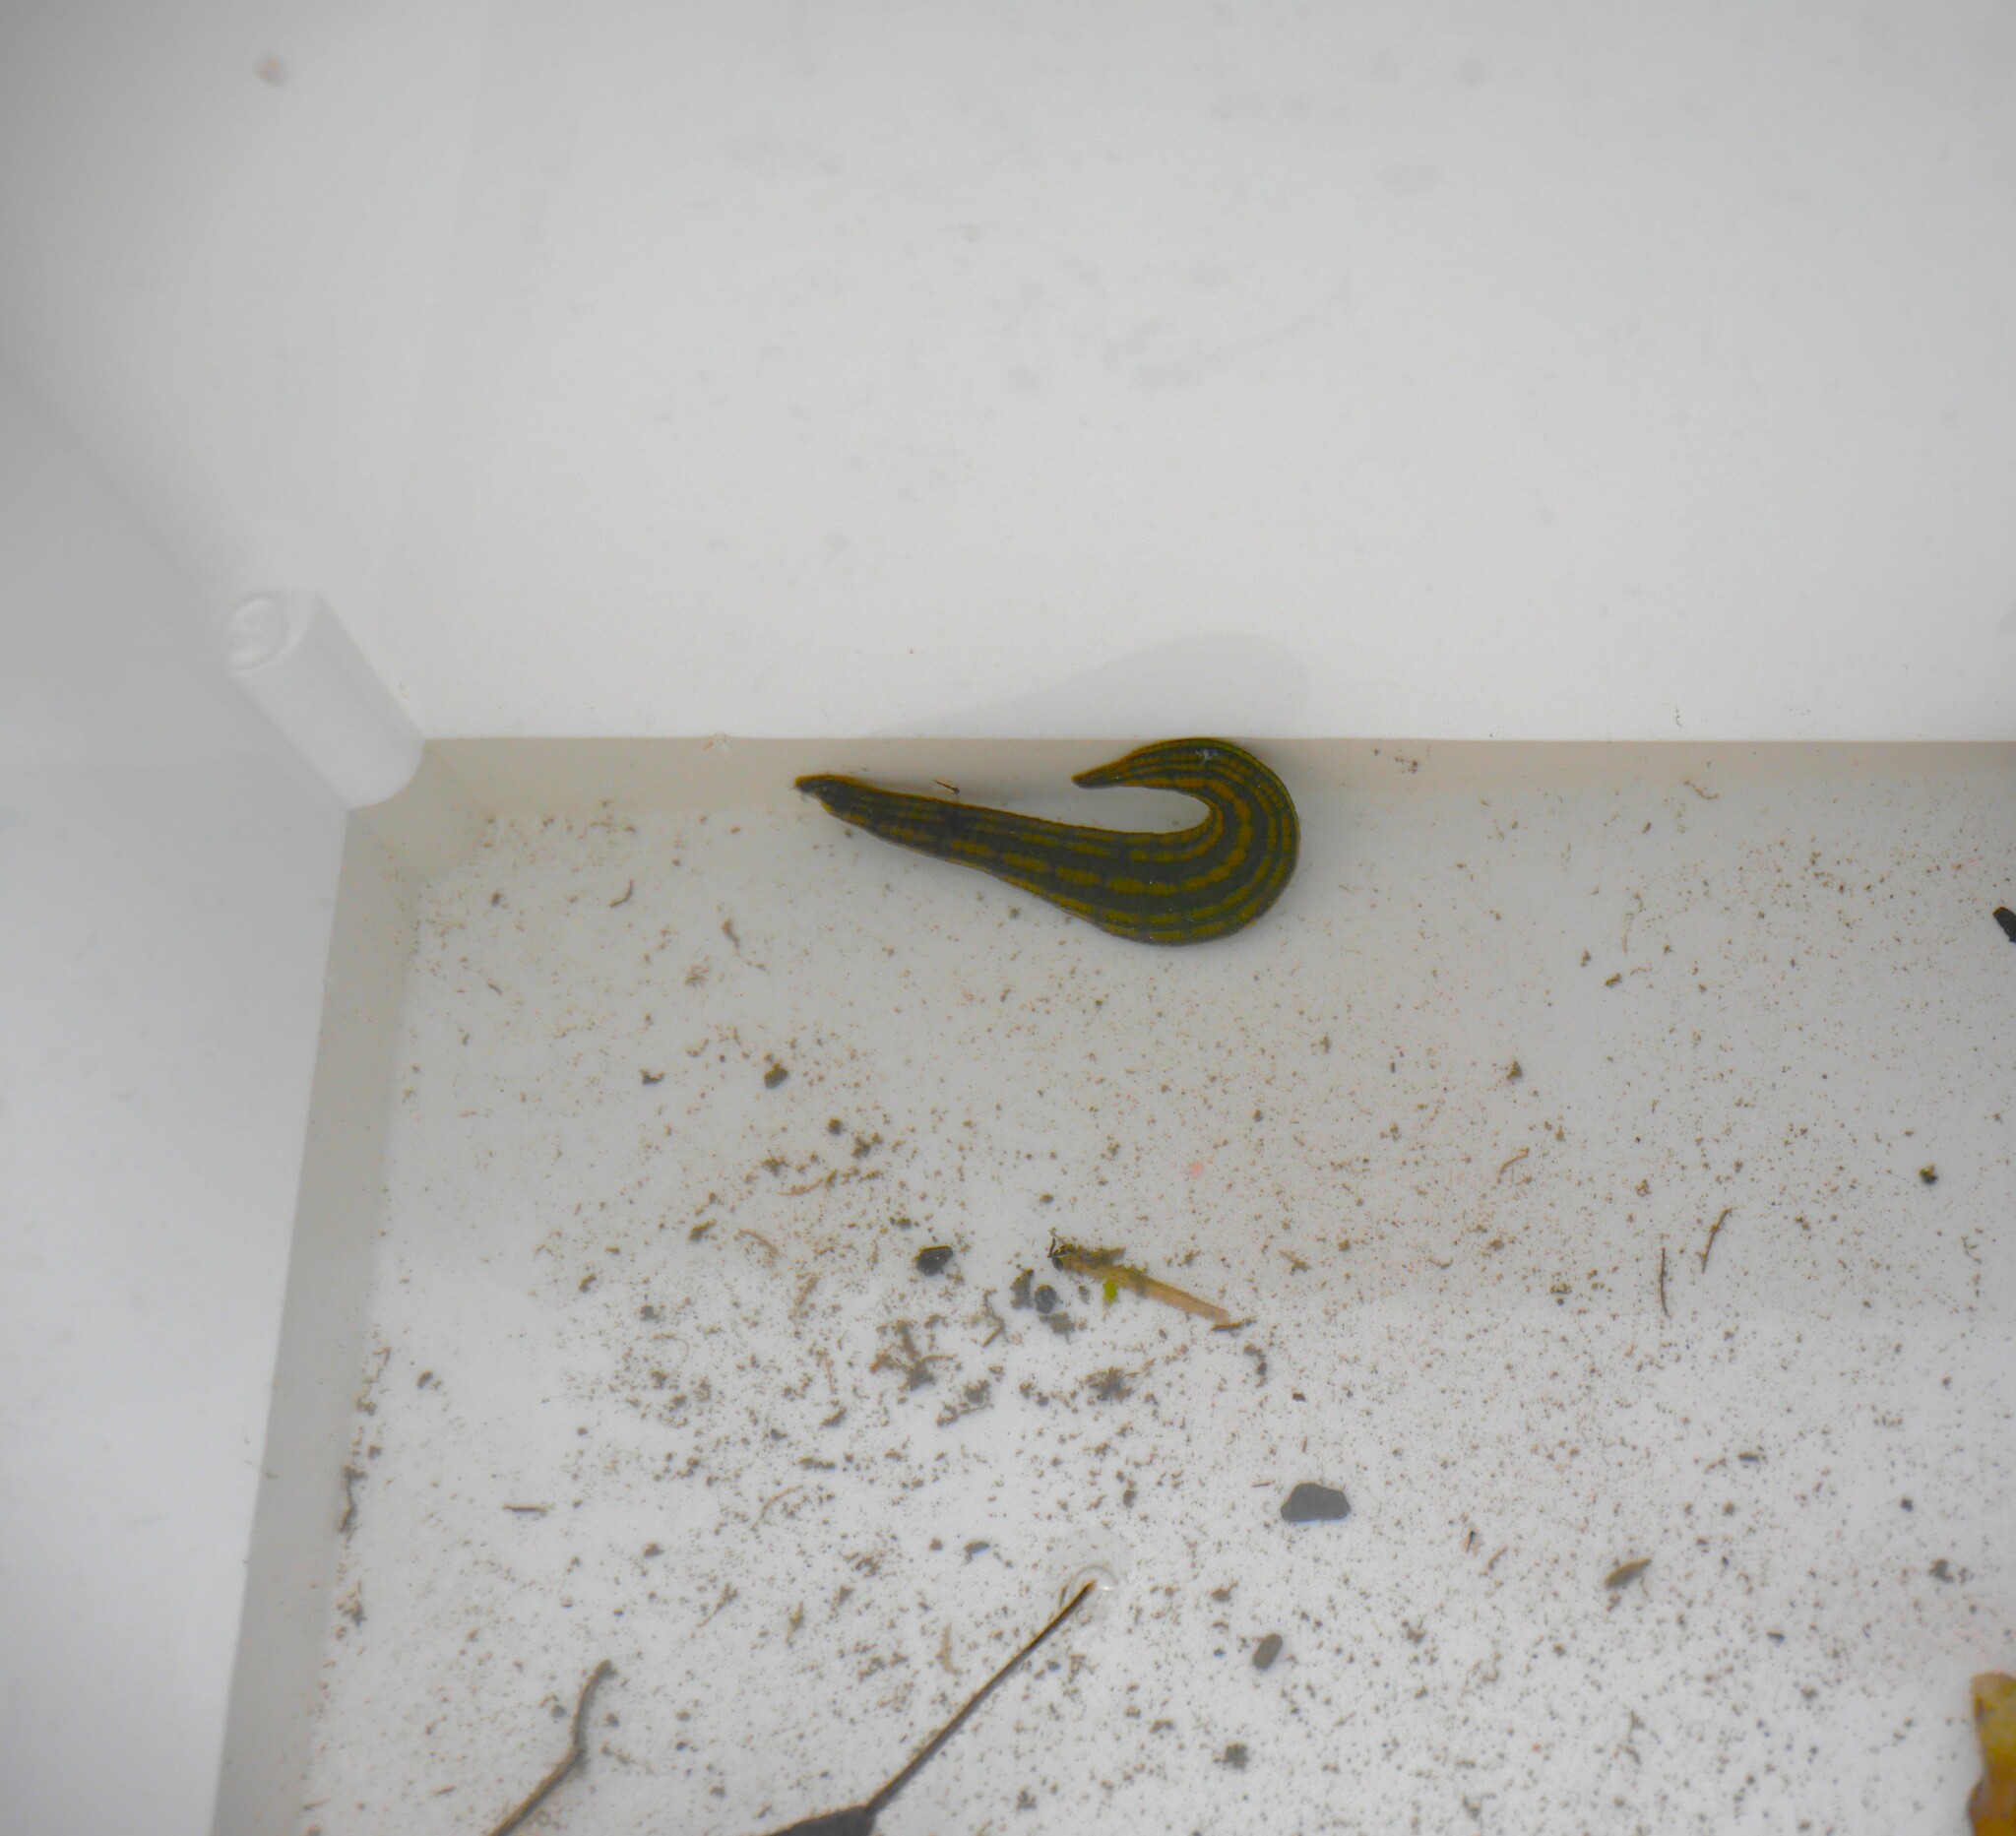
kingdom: Animalia
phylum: Annelida
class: Clitellata
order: Arhynchobdellida
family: Hirudinidae
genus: Whitmania
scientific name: Whitmania laevis
